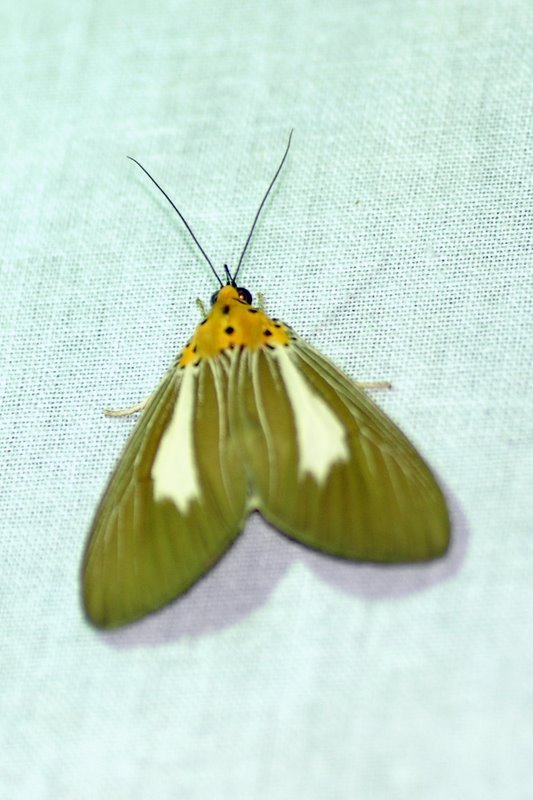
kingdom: Animalia
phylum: Arthropoda
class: Insecta
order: Lepidoptera
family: Erebidae
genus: Asota
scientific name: Asota heliconia
